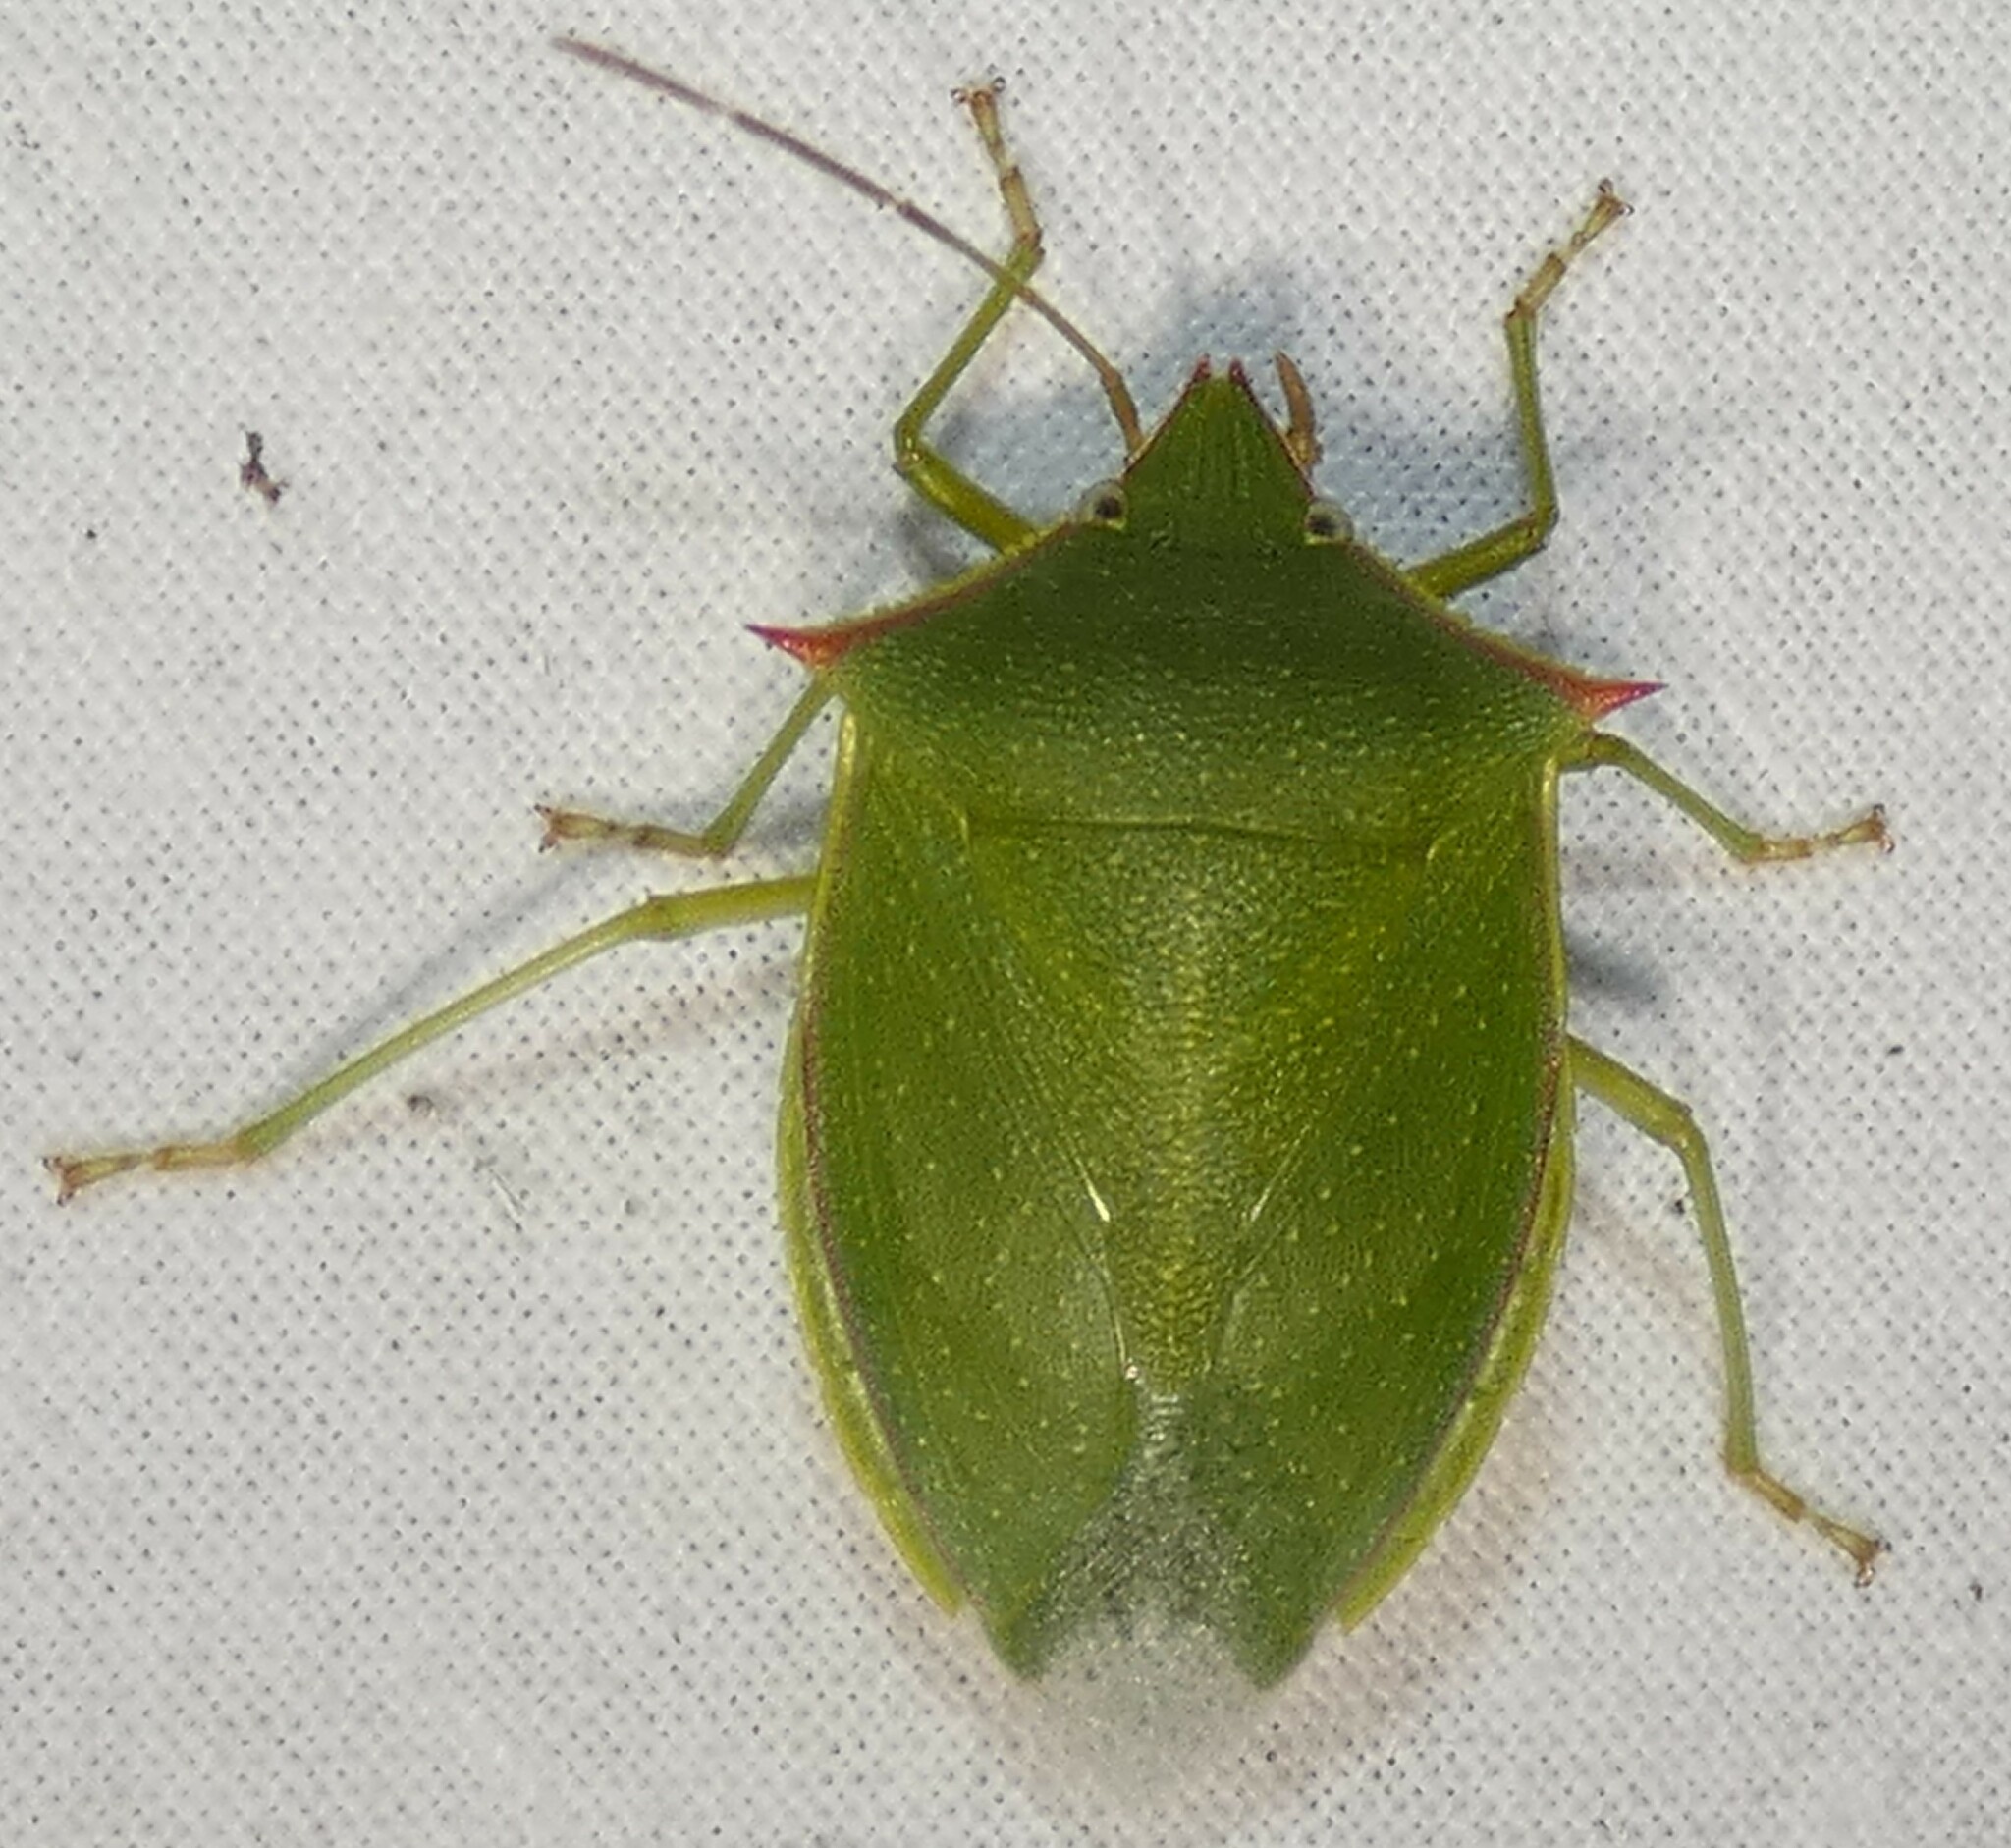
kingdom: Animalia
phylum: Arthropoda
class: Insecta
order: Hemiptera
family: Pentatomidae
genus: Loxa
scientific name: Loxa flavicollis
